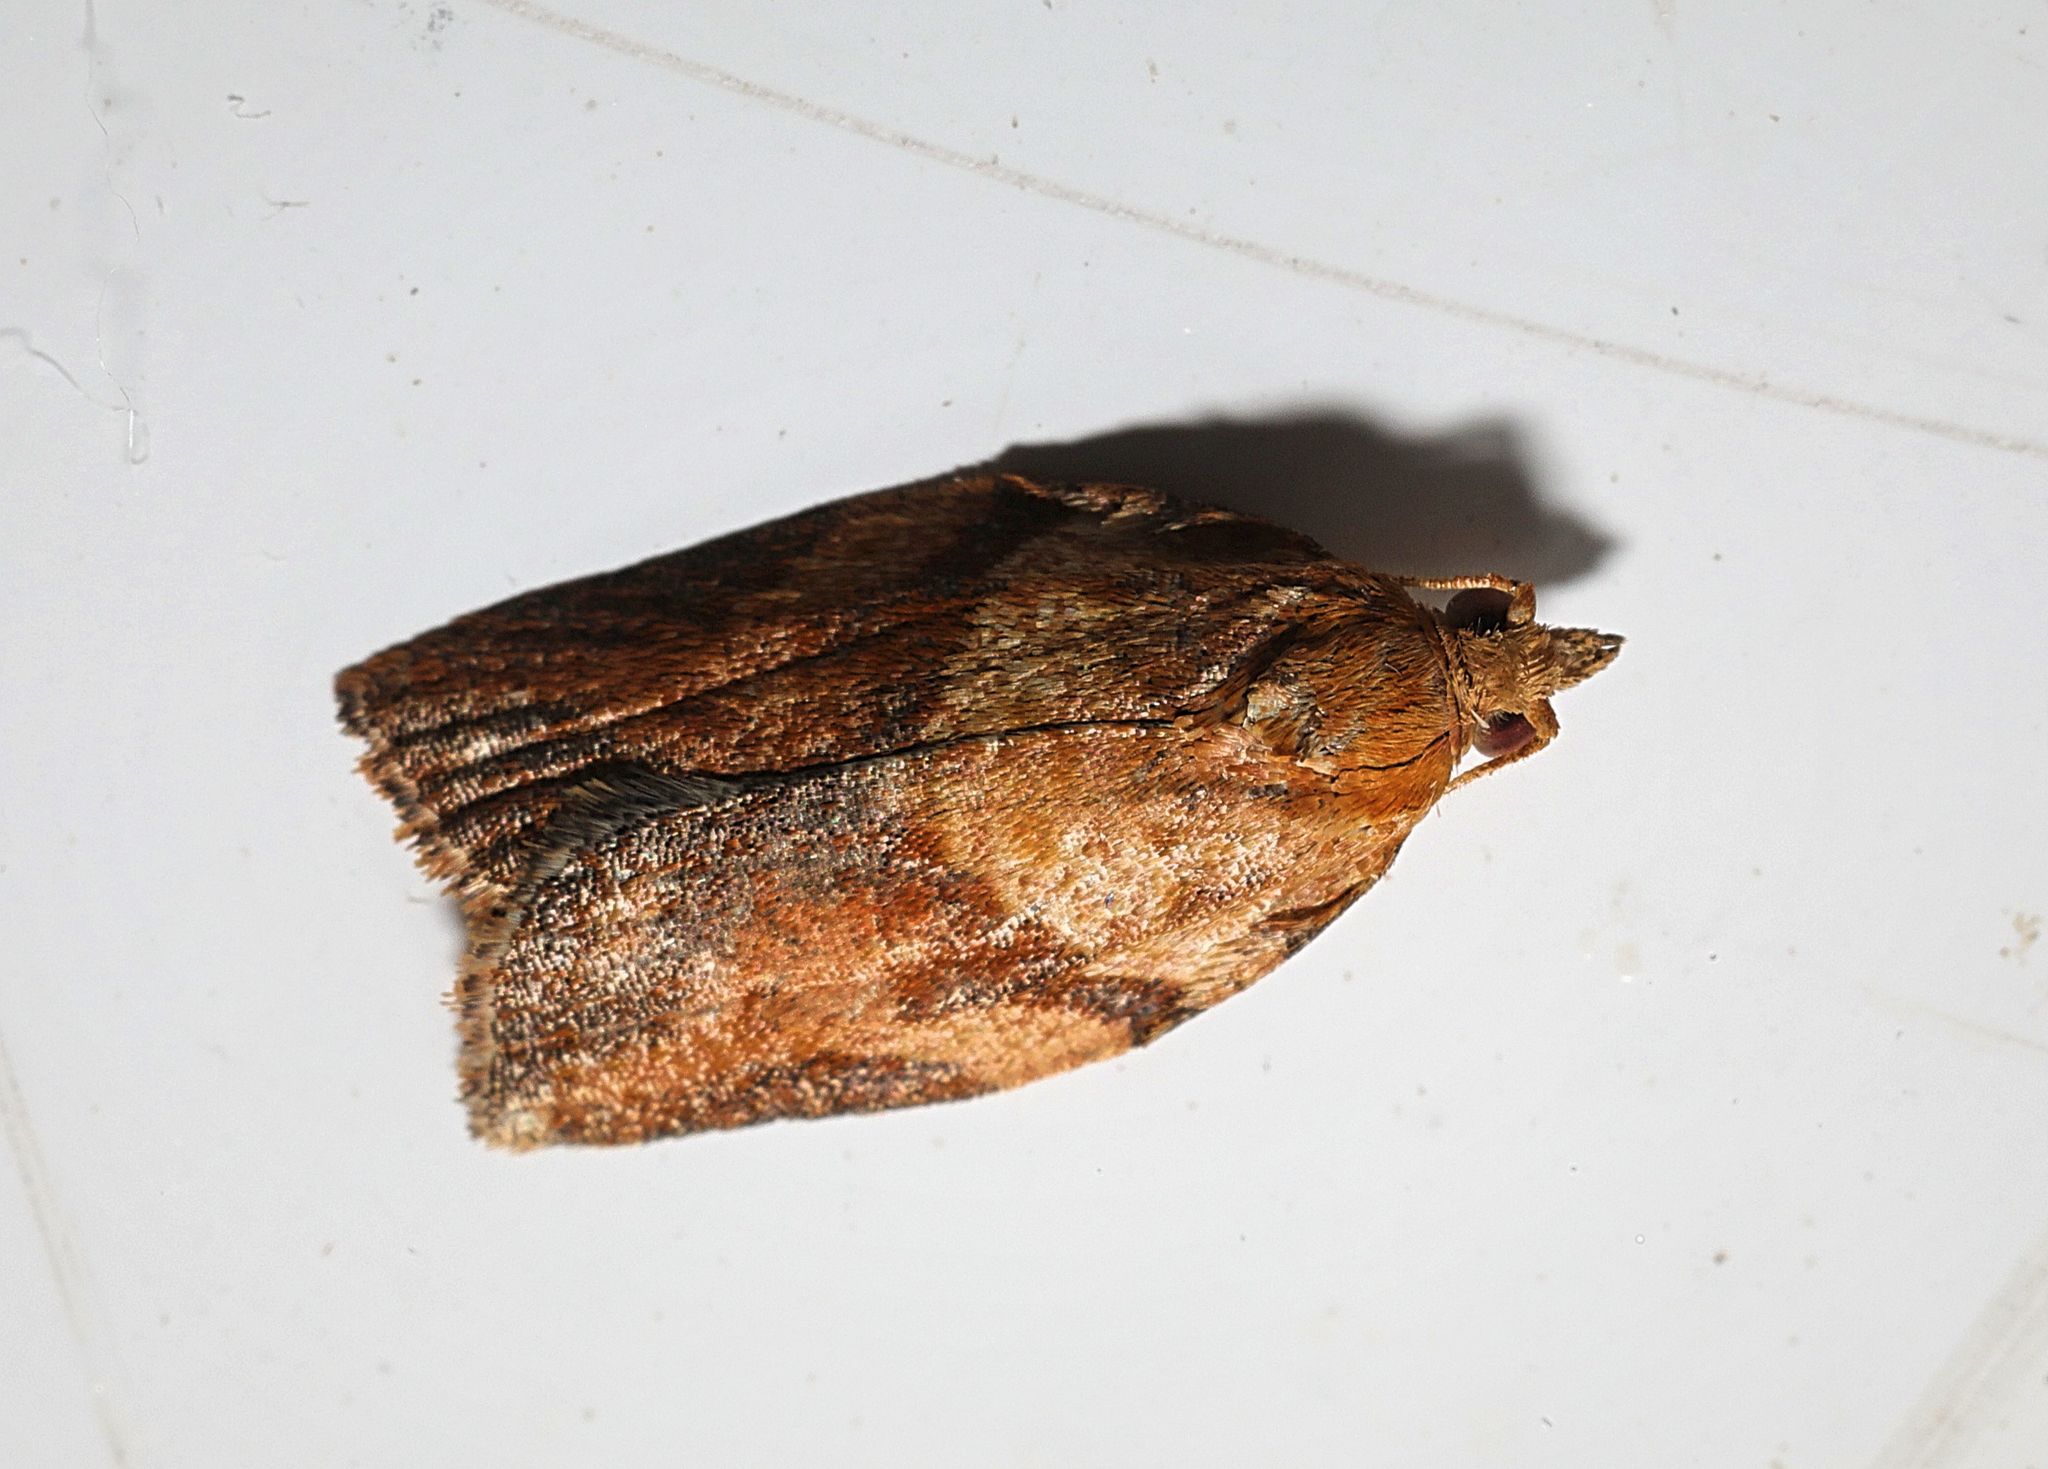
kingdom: Animalia
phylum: Arthropoda
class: Insecta
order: Lepidoptera
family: Tortricidae
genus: Epiphyas
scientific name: Epiphyas postvittana
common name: Light brown apple moth
